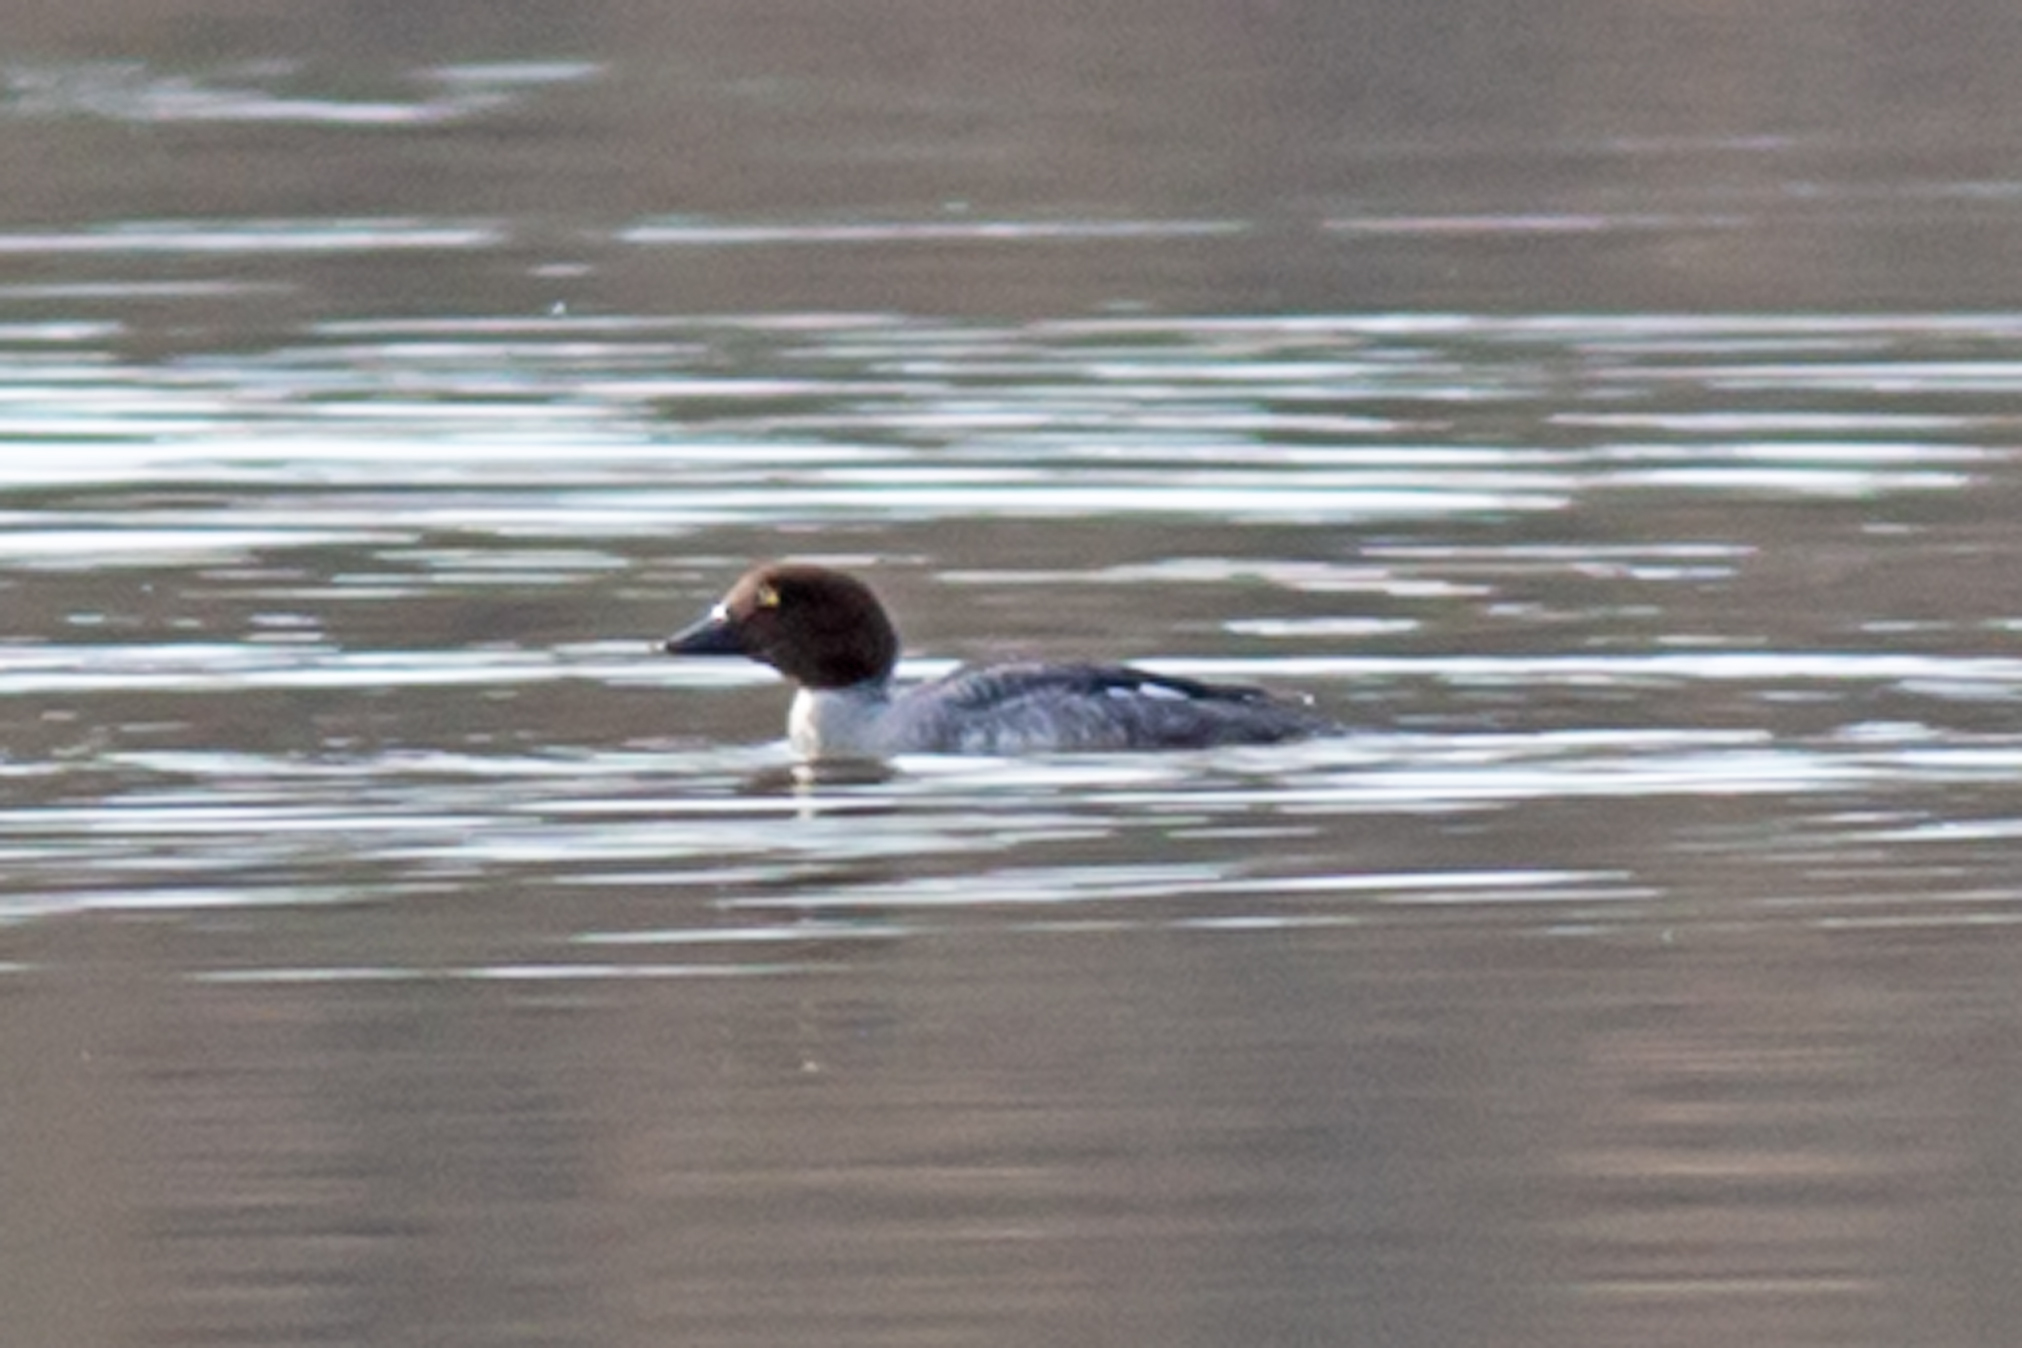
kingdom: Animalia
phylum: Chordata
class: Aves
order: Anseriformes
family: Anatidae
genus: Bucephala
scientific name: Bucephala clangula
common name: Common goldeneye
